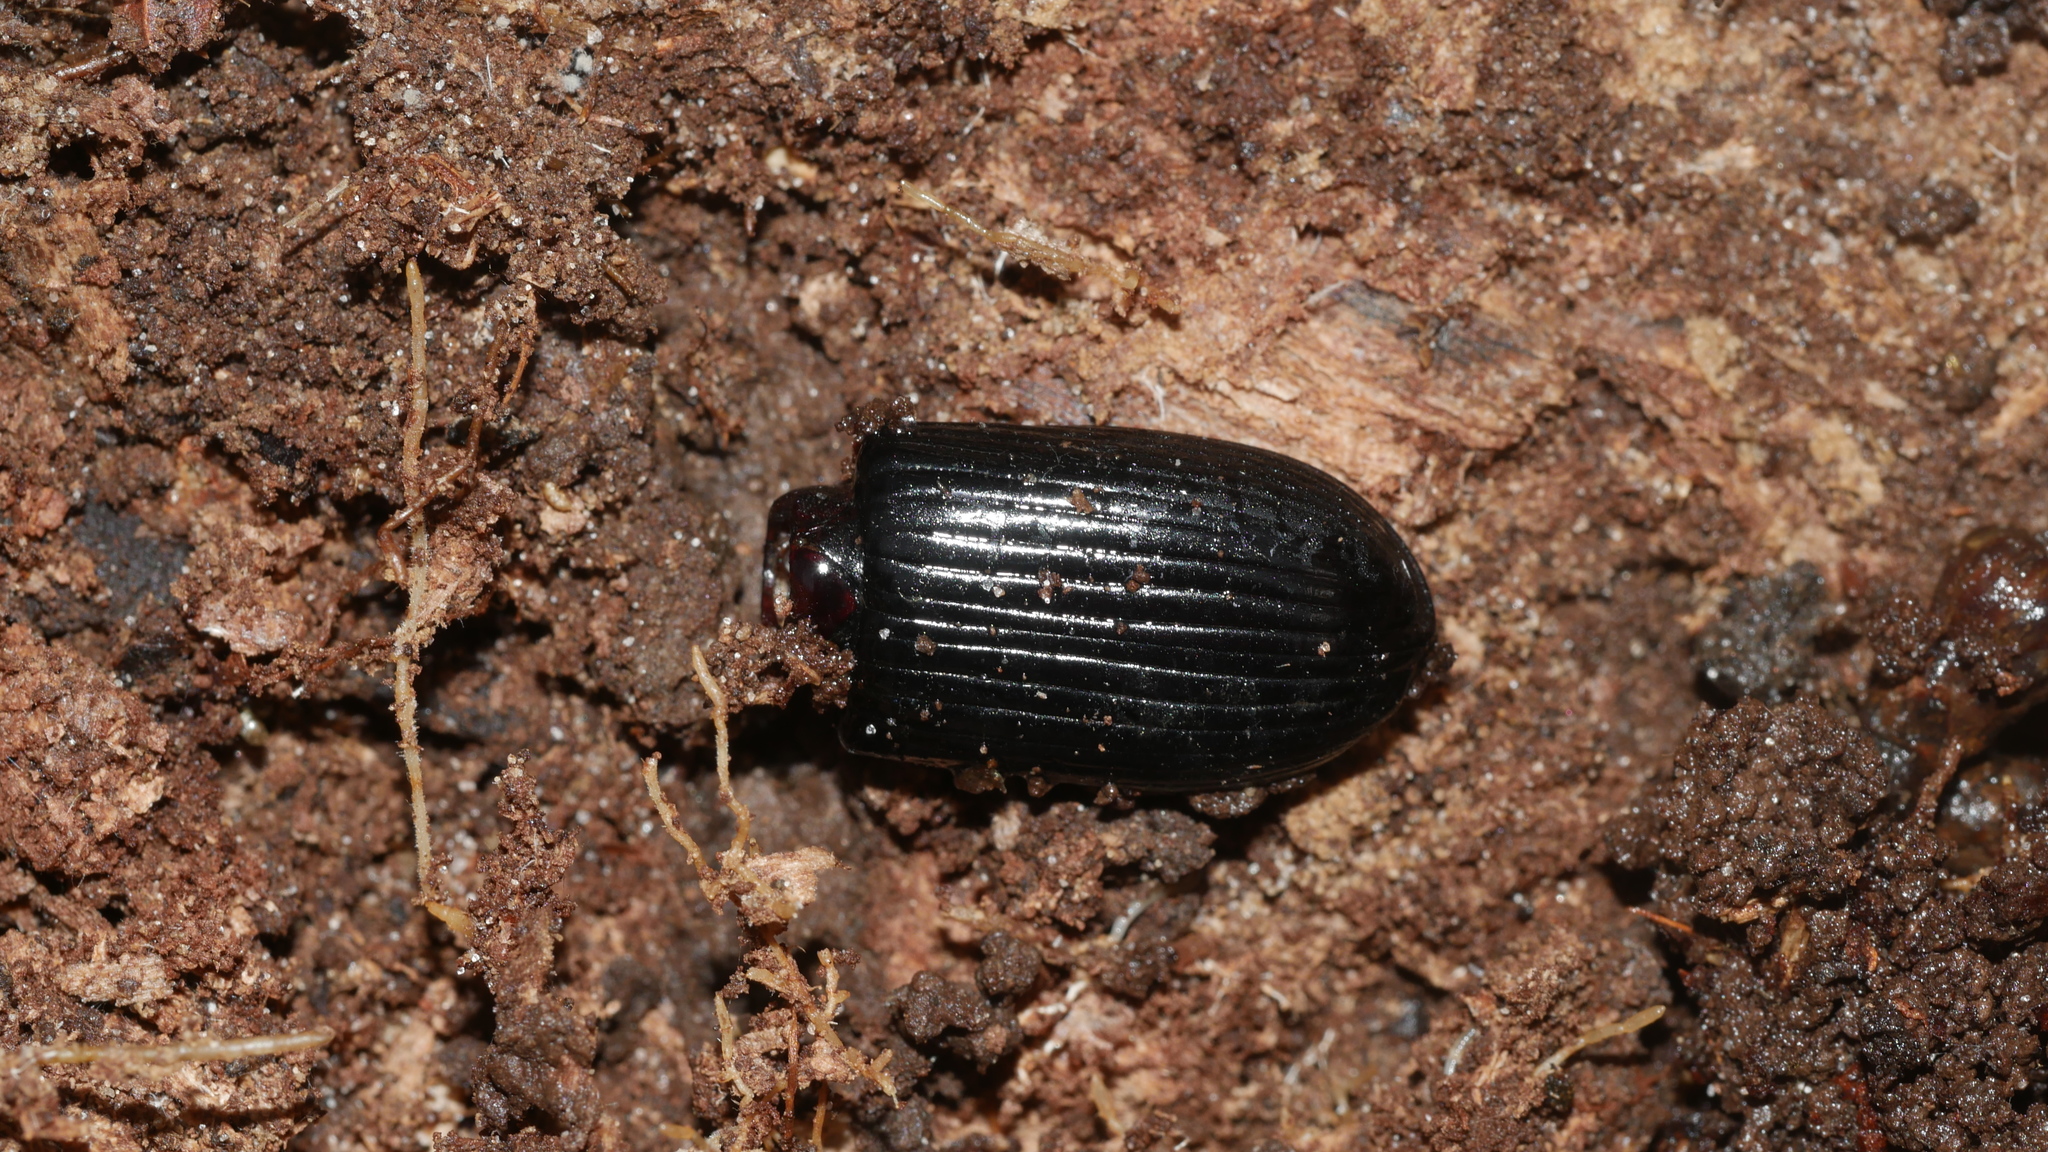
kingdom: Animalia
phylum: Arthropoda
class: Insecta
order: Coleoptera
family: Passalidae
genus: Odontotaenius
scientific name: Odontotaenius disjunctus
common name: Patent leather beetle
